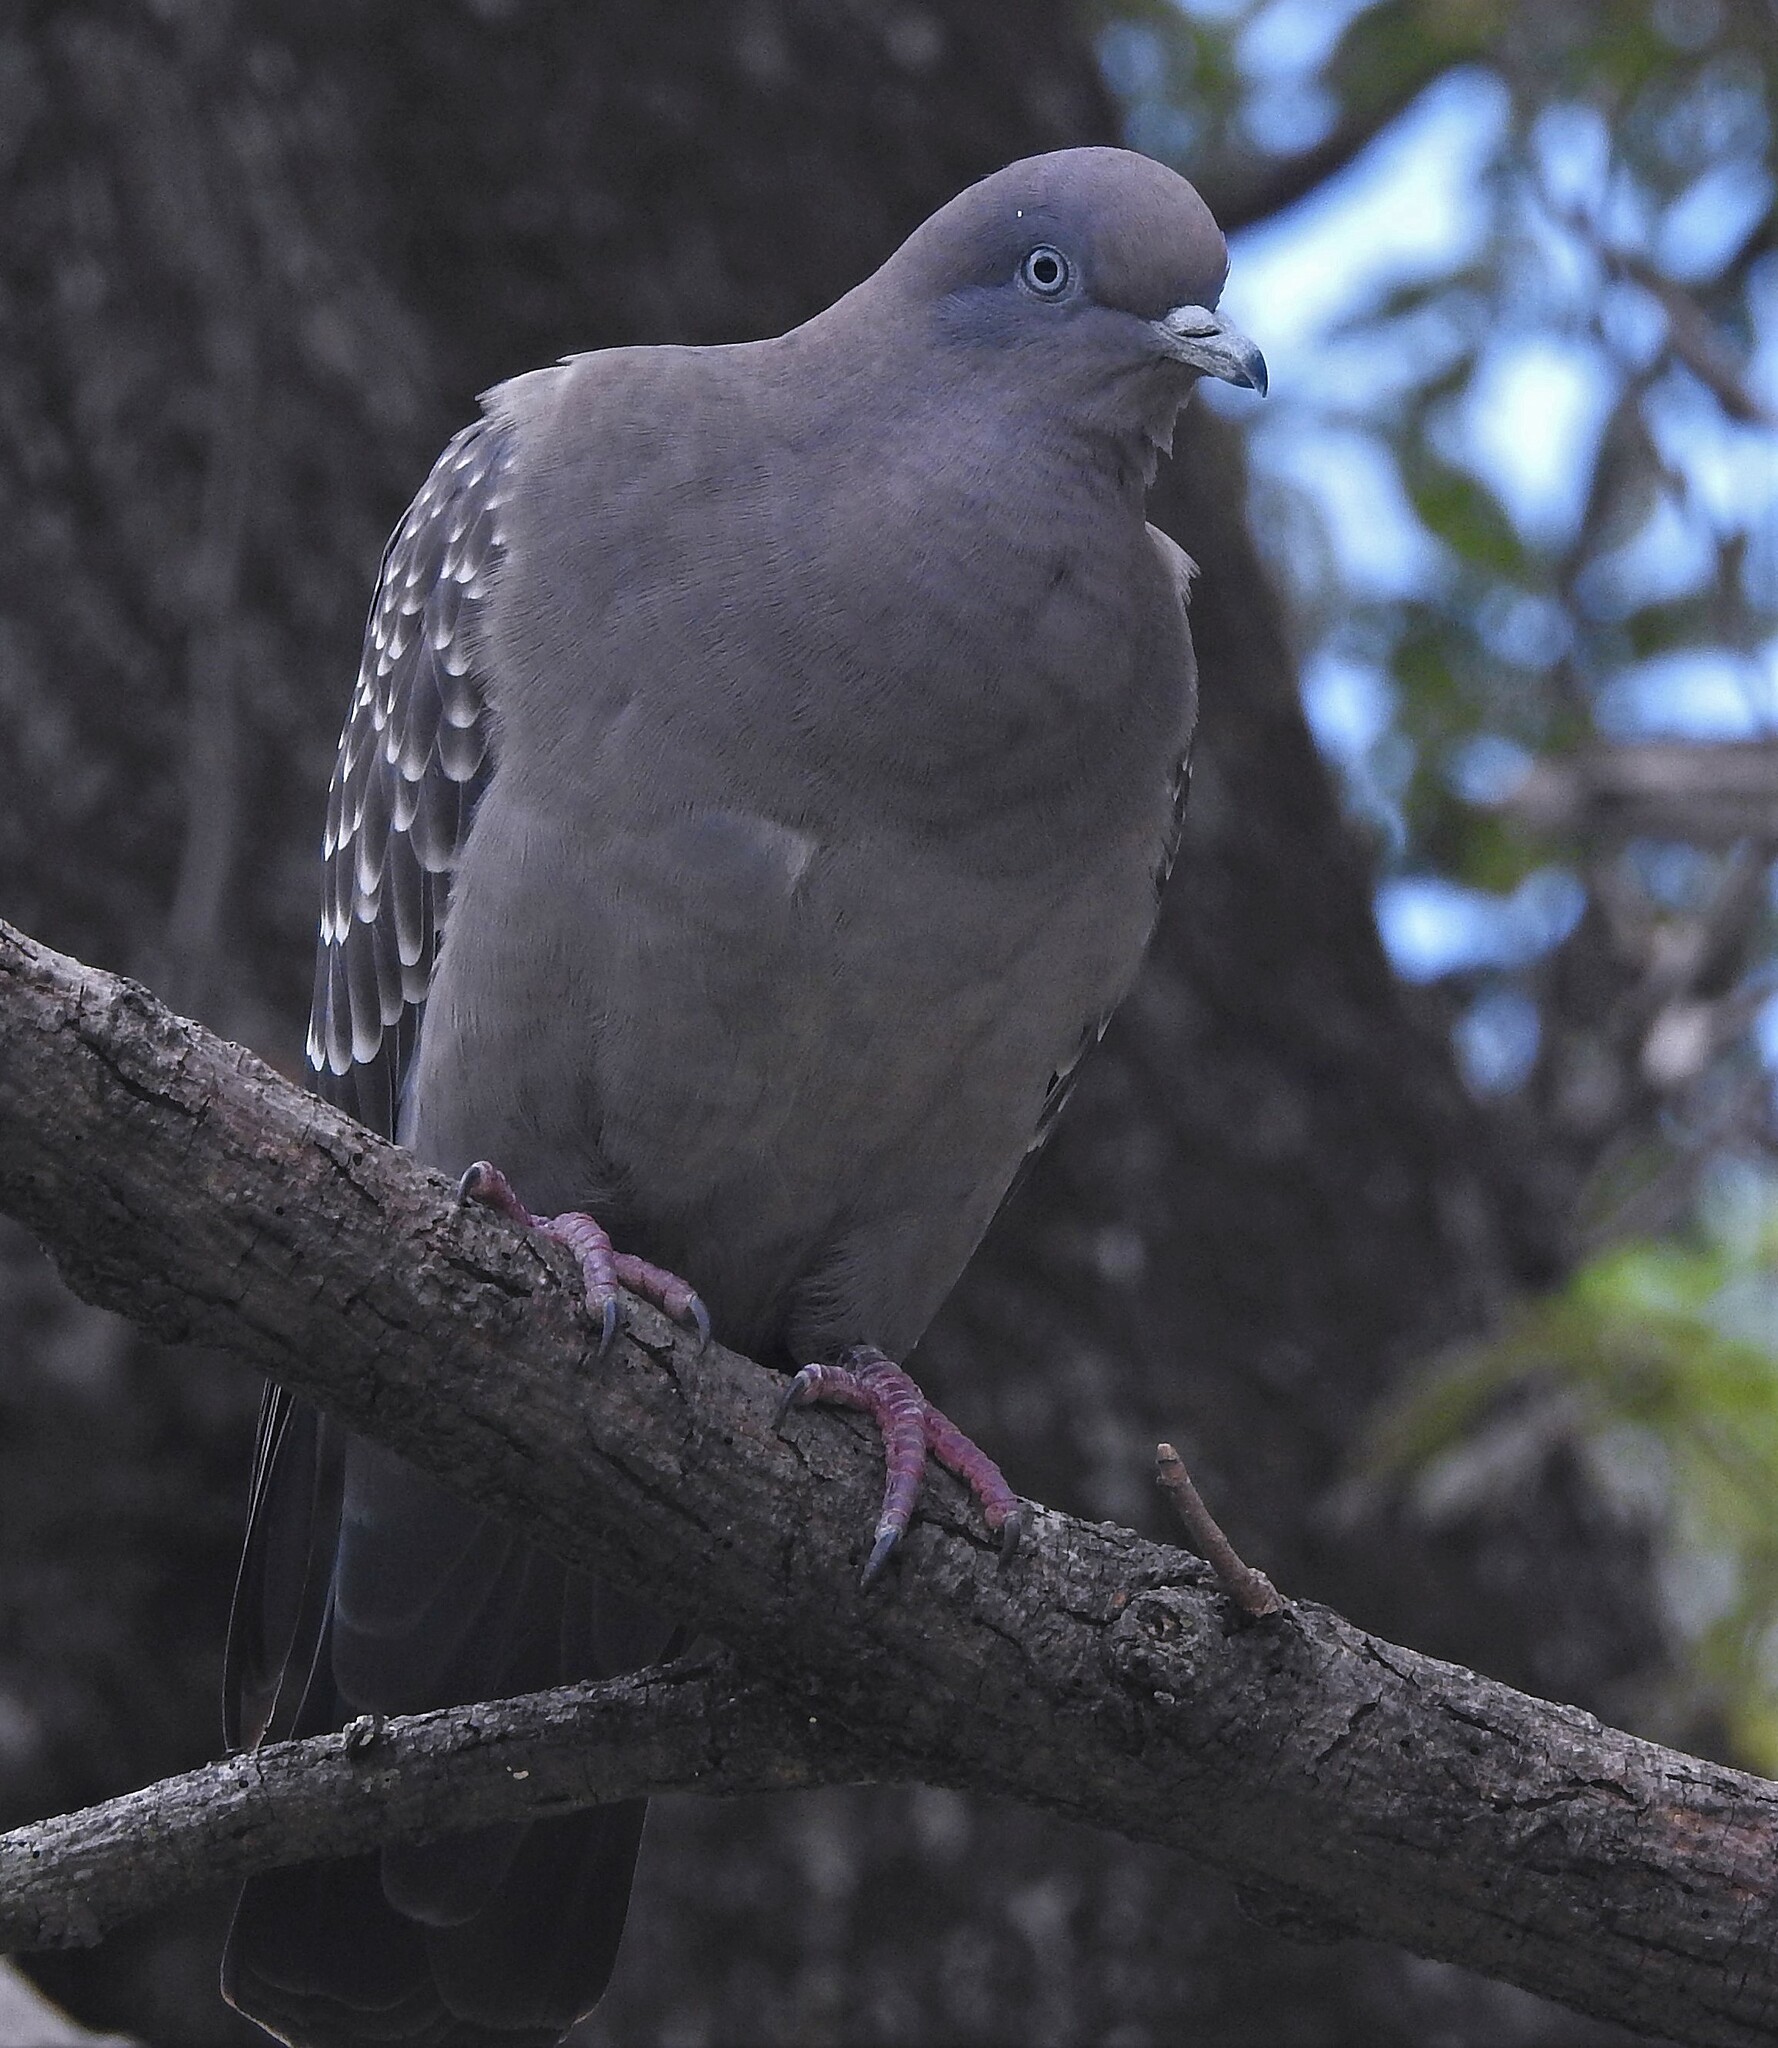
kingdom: Animalia
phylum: Chordata
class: Aves
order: Columbiformes
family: Columbidae
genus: Patagioenas
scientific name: Patagioenas maculosa
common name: Spot-winged pigeon
